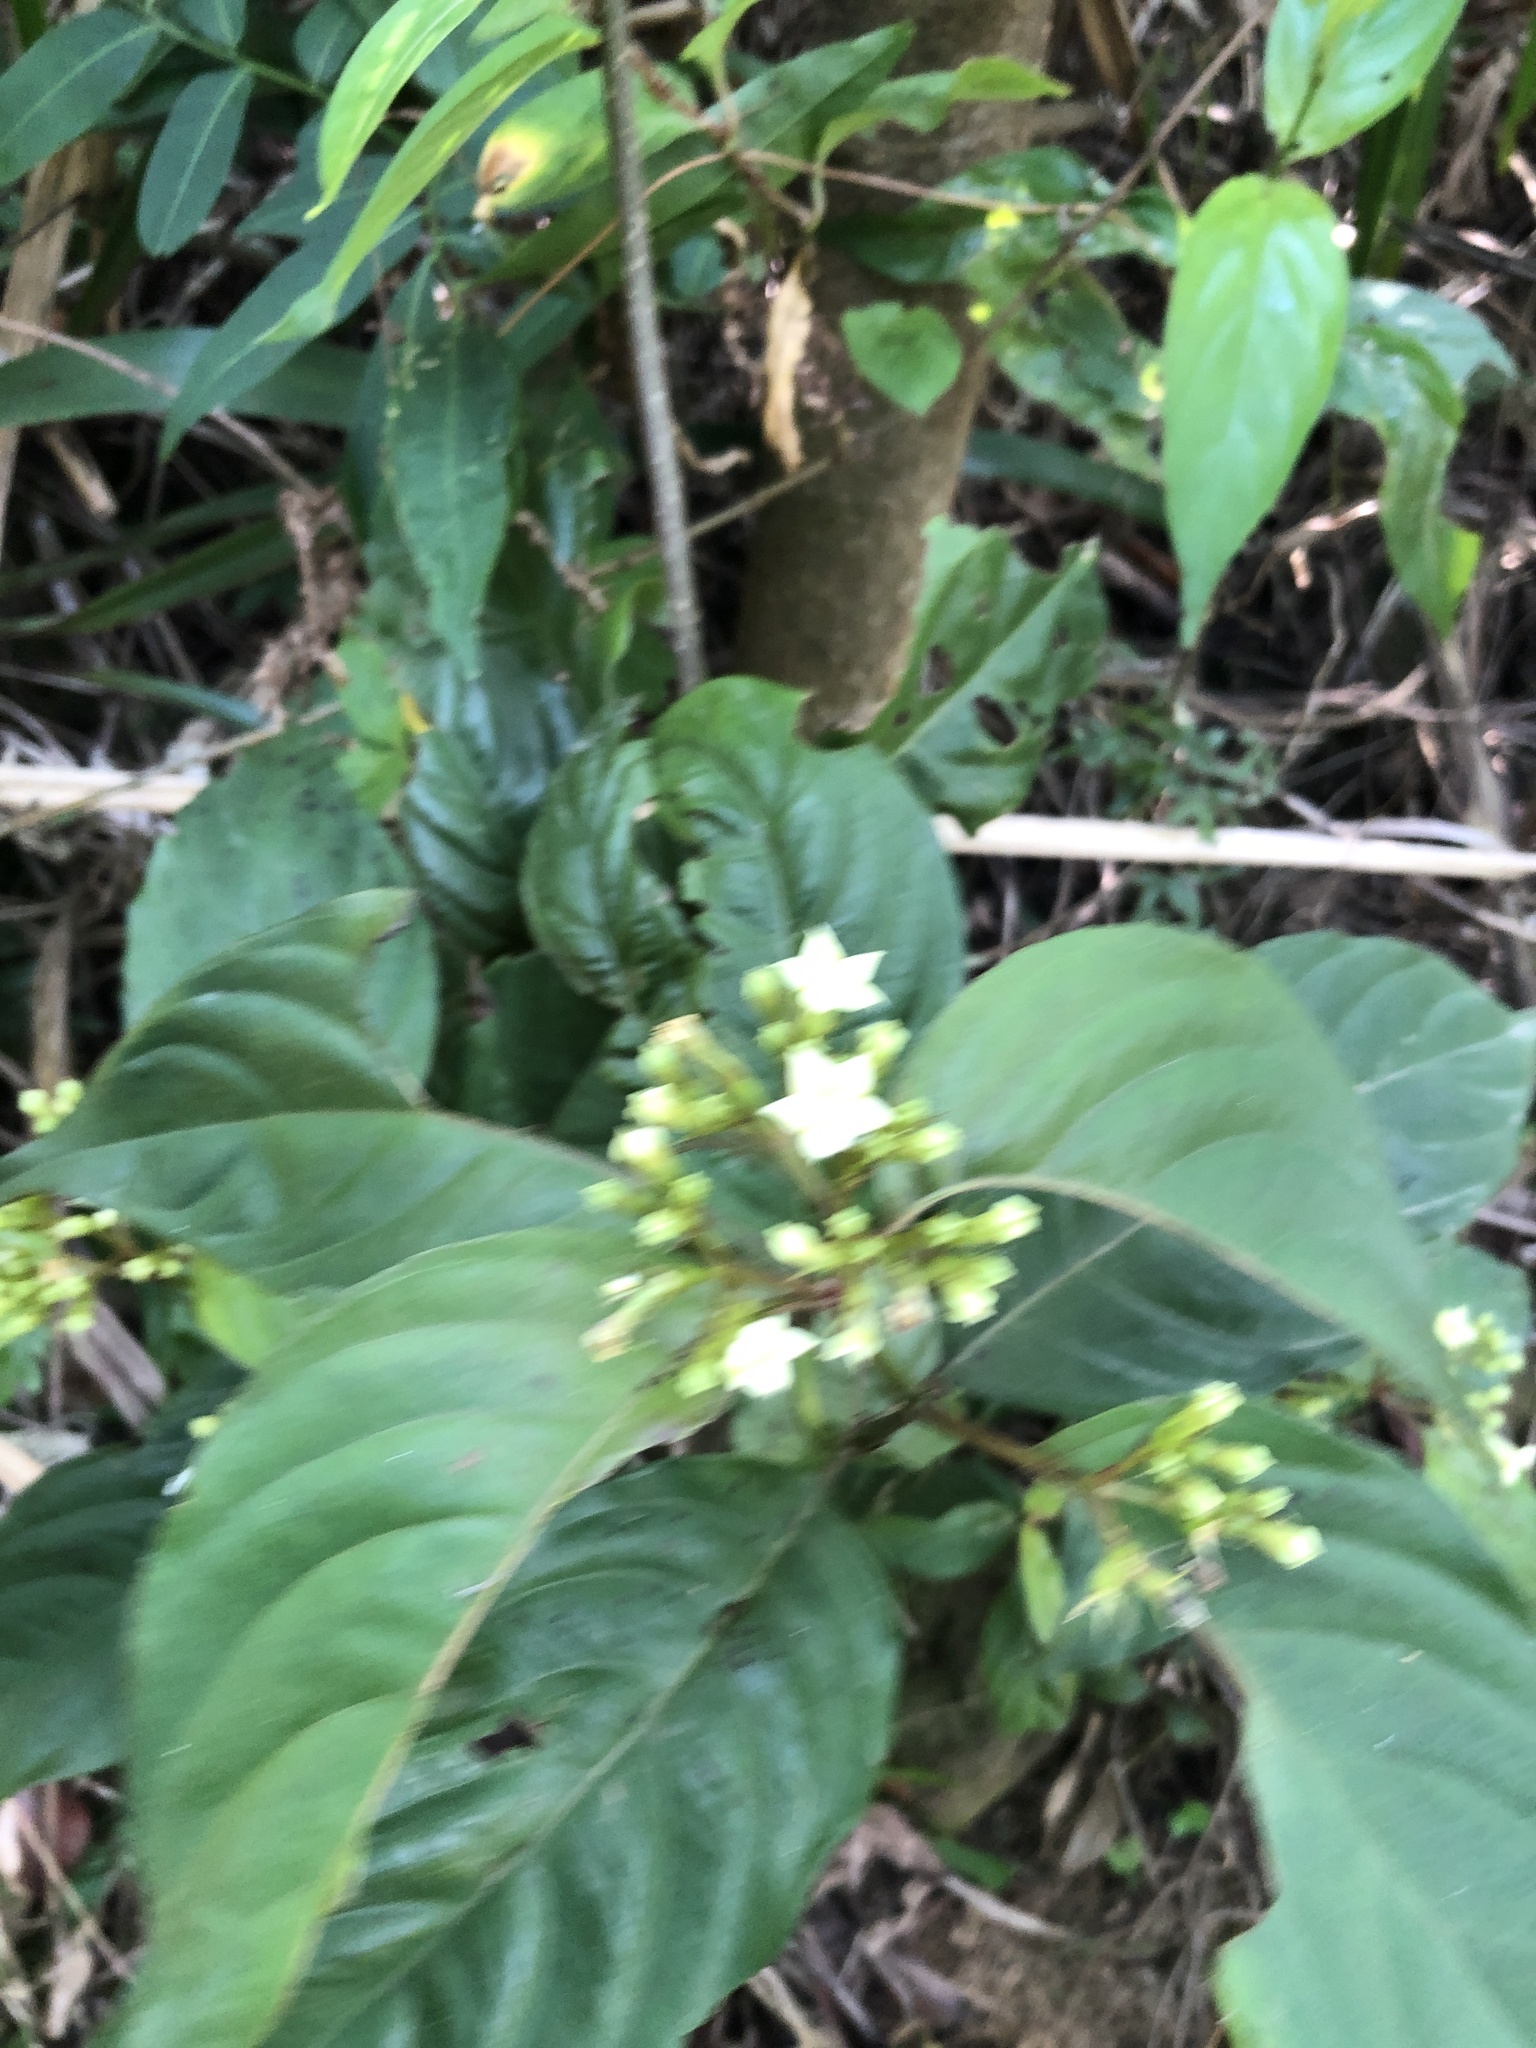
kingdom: Plantae
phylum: Tracheophyta
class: Magnoliopsida
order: Gentianales
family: Rubiaceae
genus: Mussaenda
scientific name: Mussaenda parviflora
